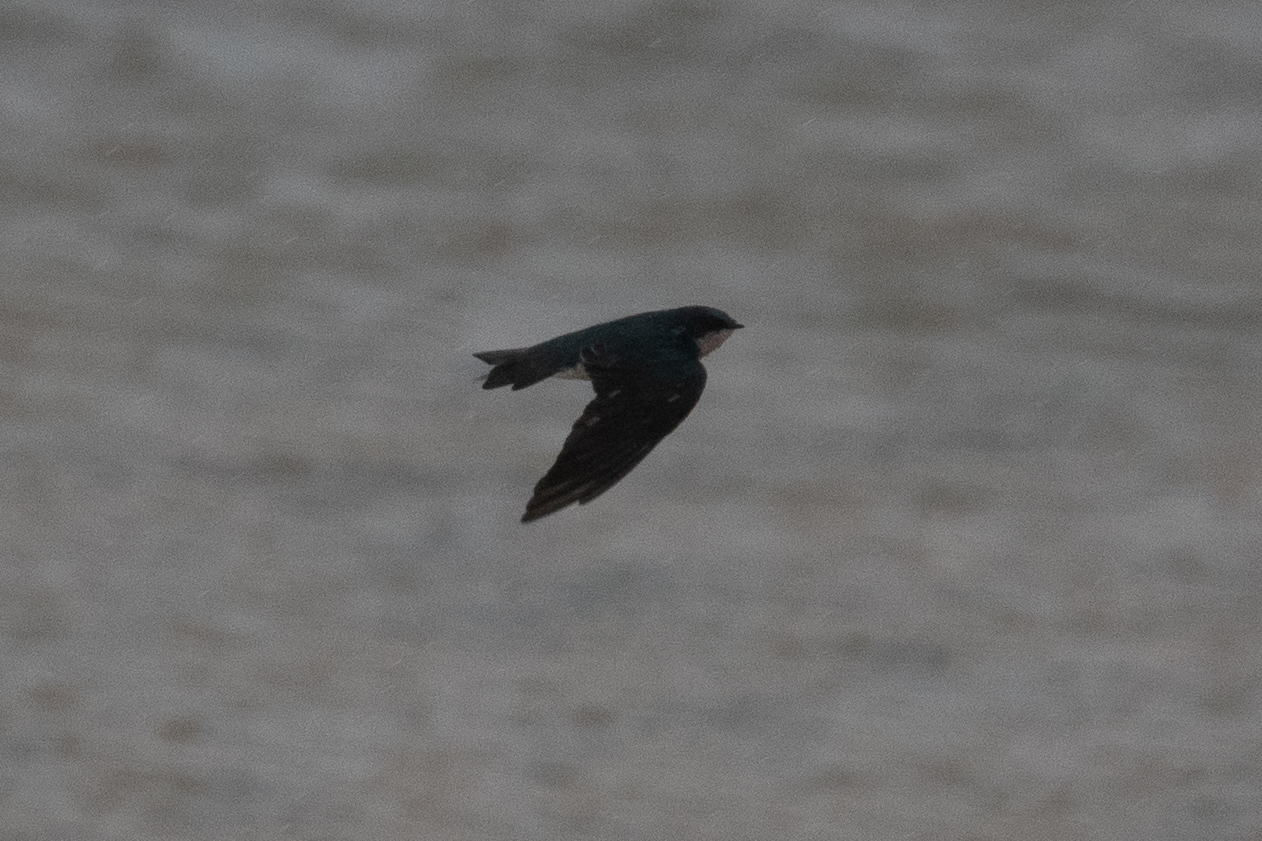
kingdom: Animalia
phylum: Chordata
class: Aves
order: Passeriformes
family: Hirundinidae
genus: Tachycineta
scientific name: Tachycineta bicolor
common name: Tree swallow
